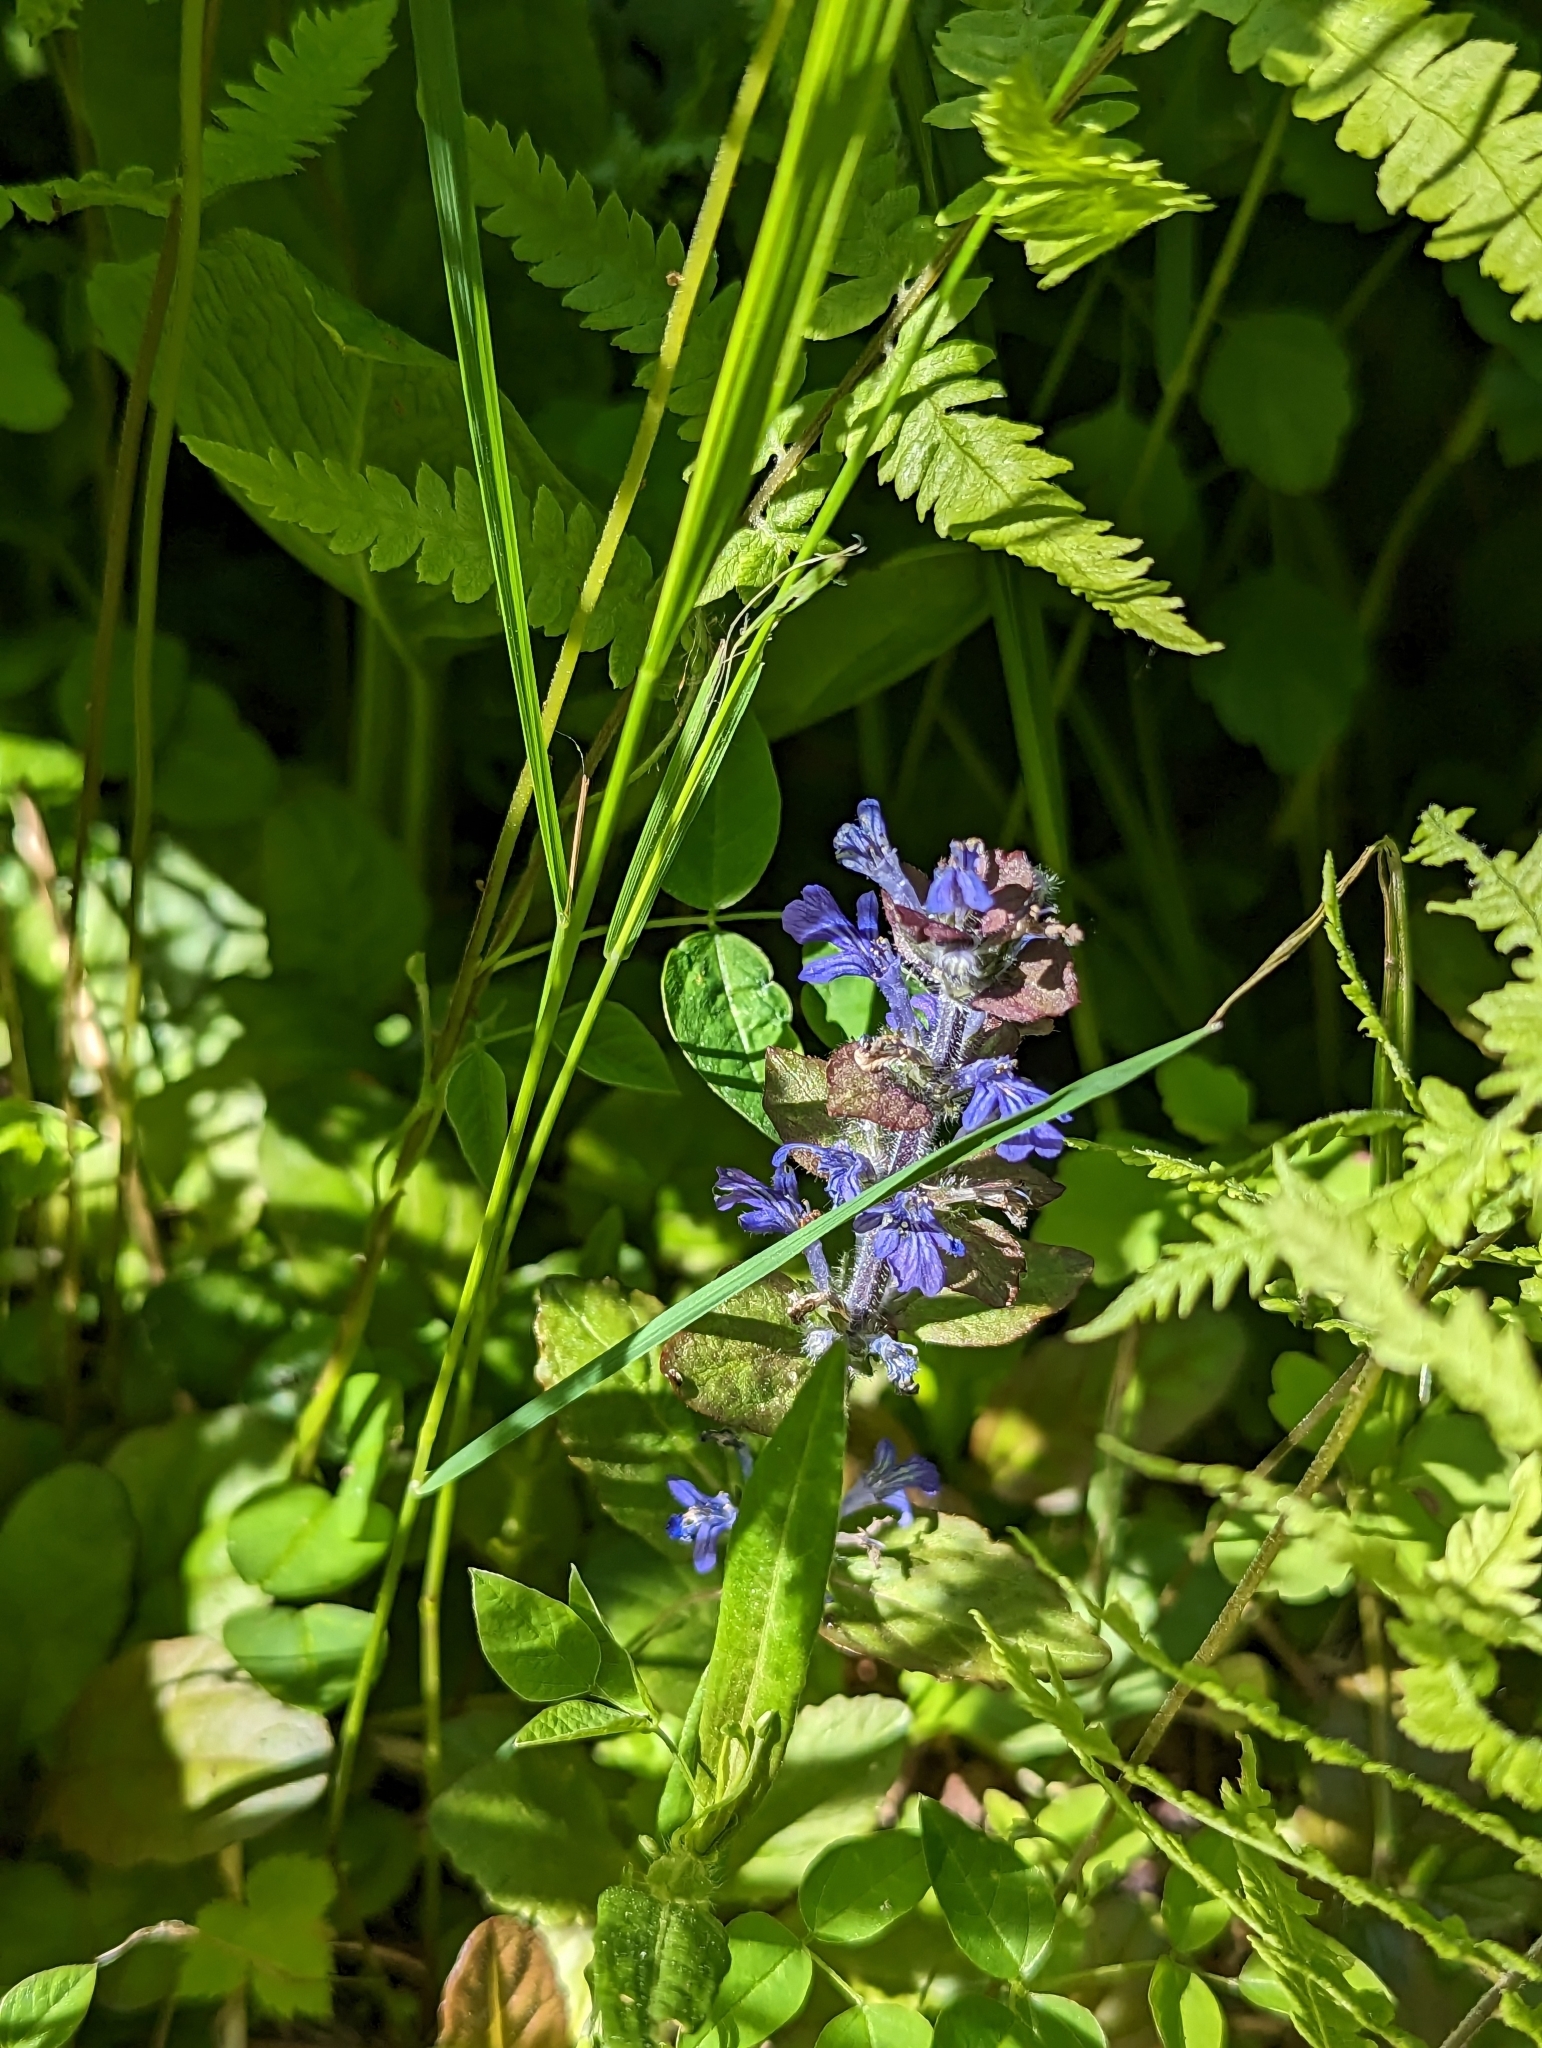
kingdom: Plantae
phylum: Tracheophyta
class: Magnoliopsida
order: Lamiales
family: Lamiaceae
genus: Ajuga
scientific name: Ajuga reptans
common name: Bugle
